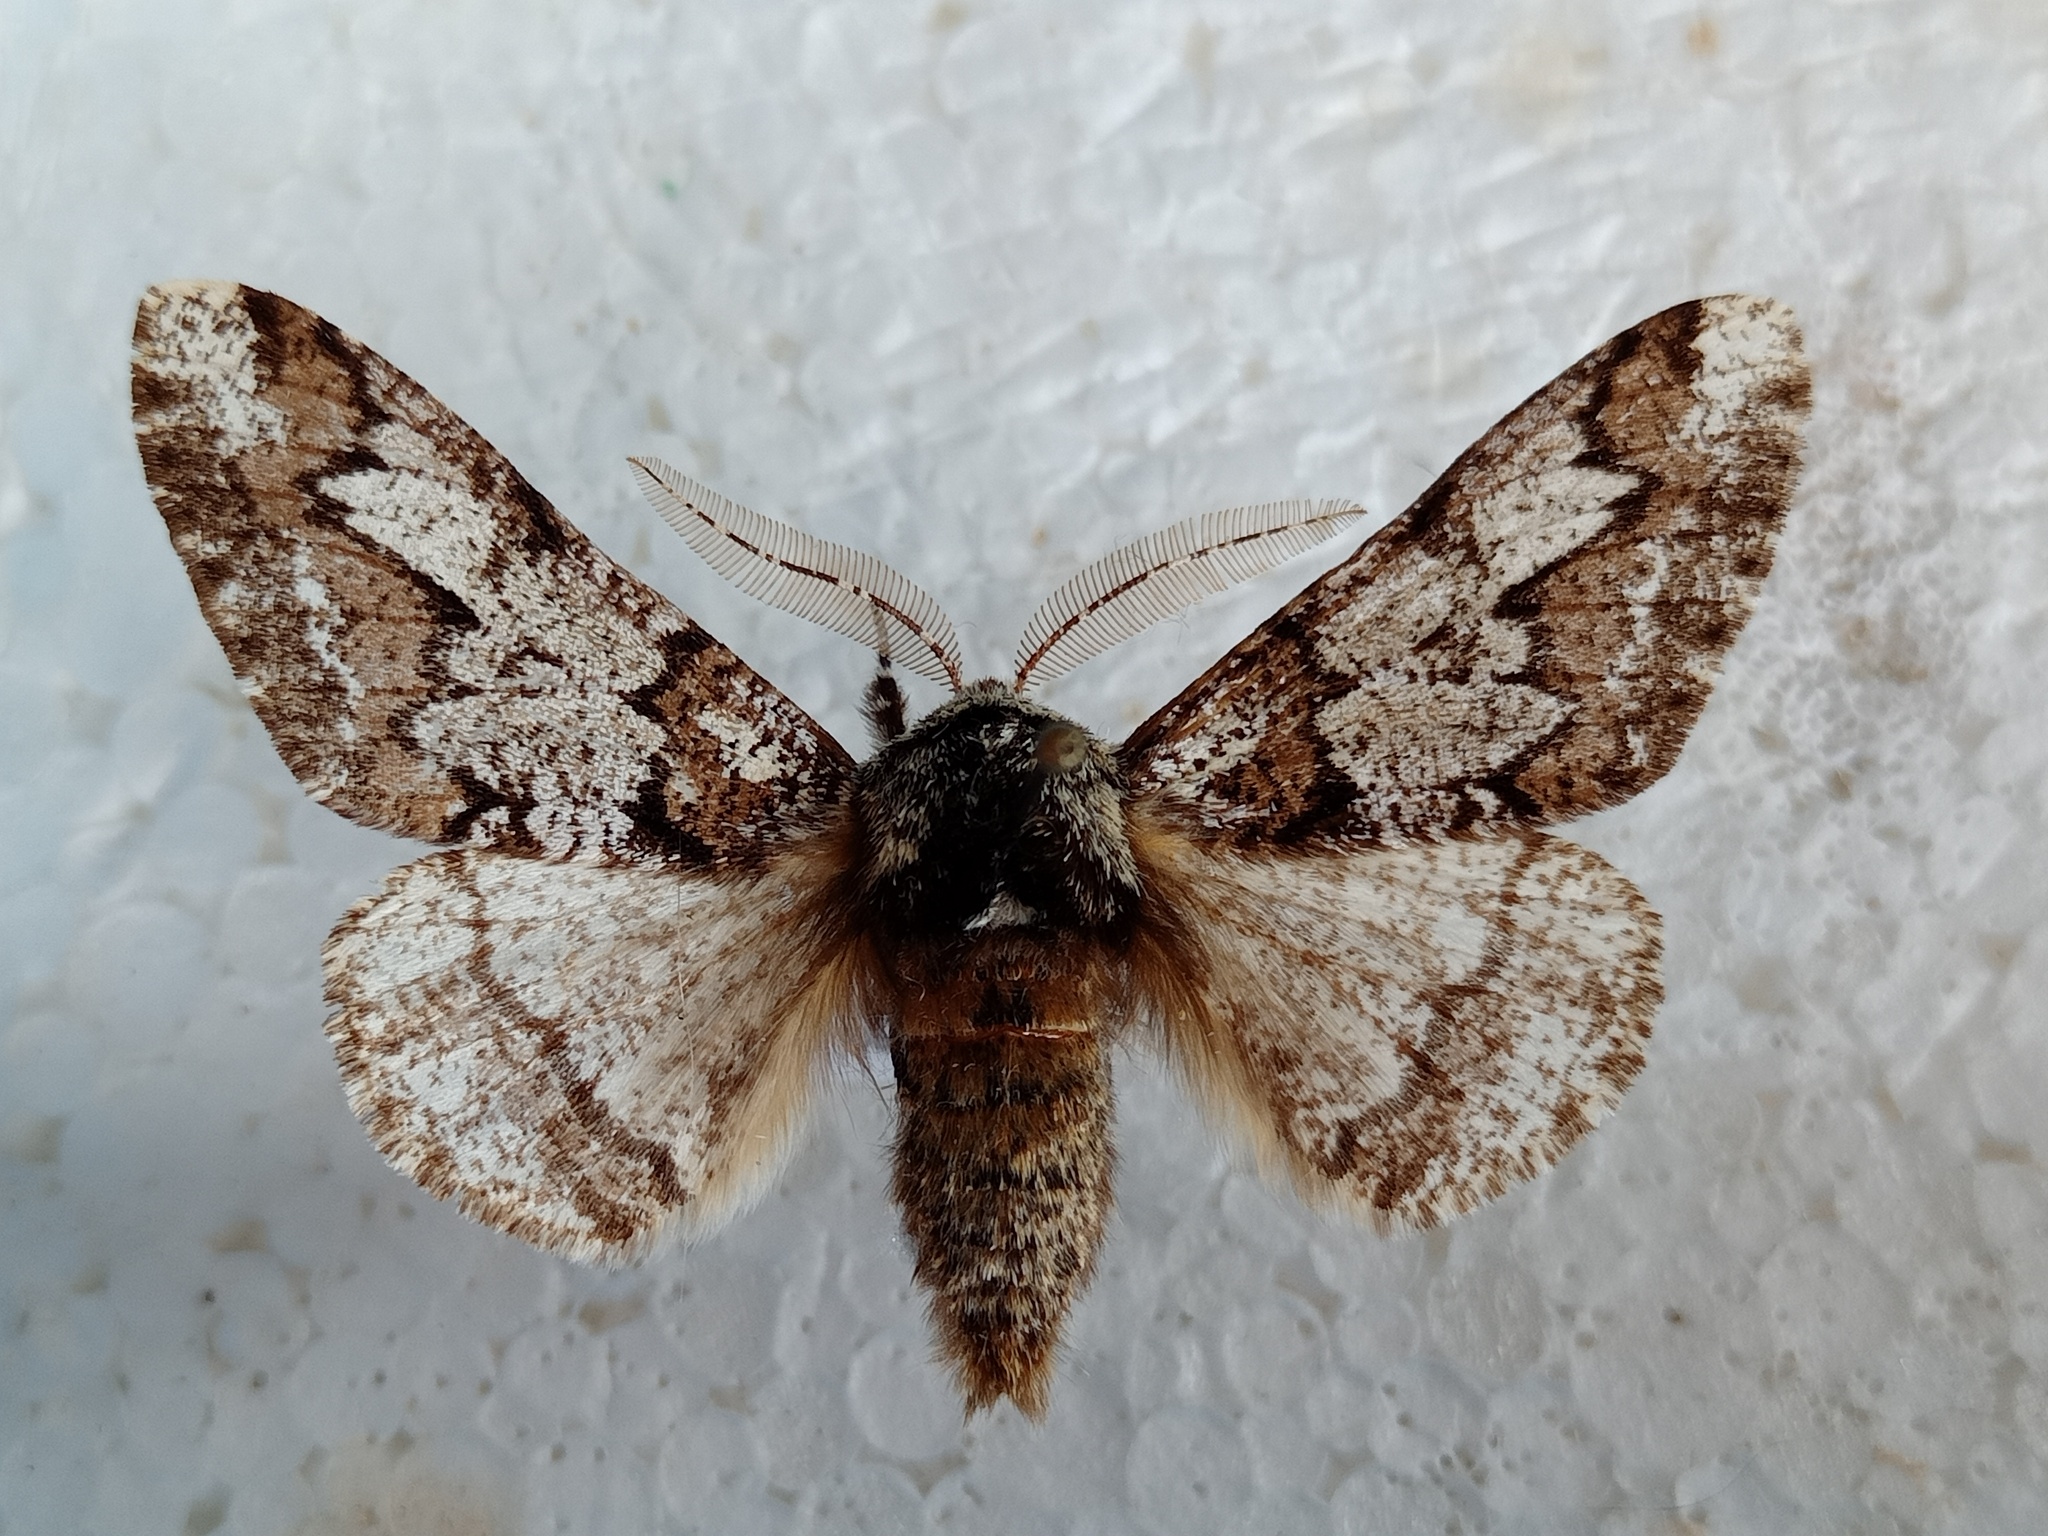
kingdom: Animalia
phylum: Arthropoda
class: Insecta
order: Lepidoptera
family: Geometridae
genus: Biston
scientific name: Biston strataria
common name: Oak beauty
